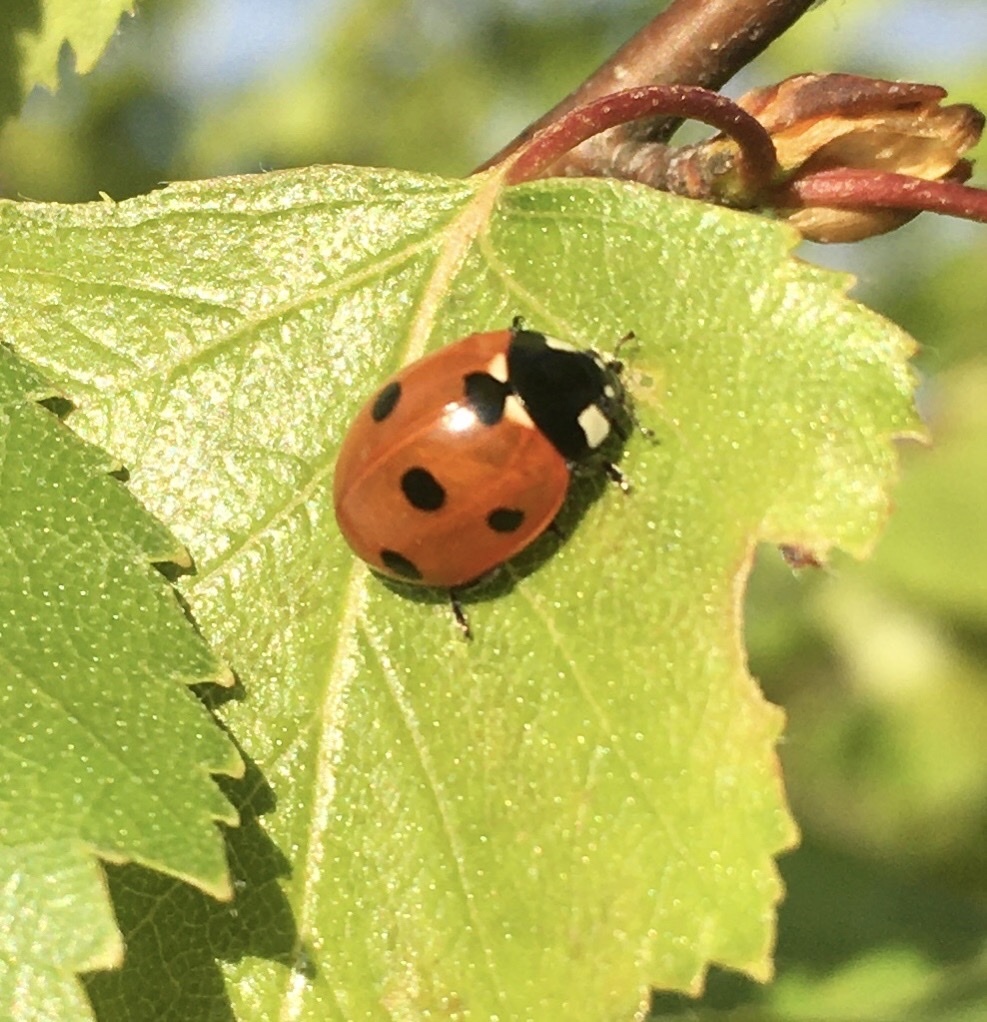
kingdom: Animalia
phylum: Arthropoda
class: Insecta
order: Coleoptera
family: Coccinellidae
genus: Coccinella
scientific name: Coccinella septempunctata
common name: Sevenspotted lady beetle
